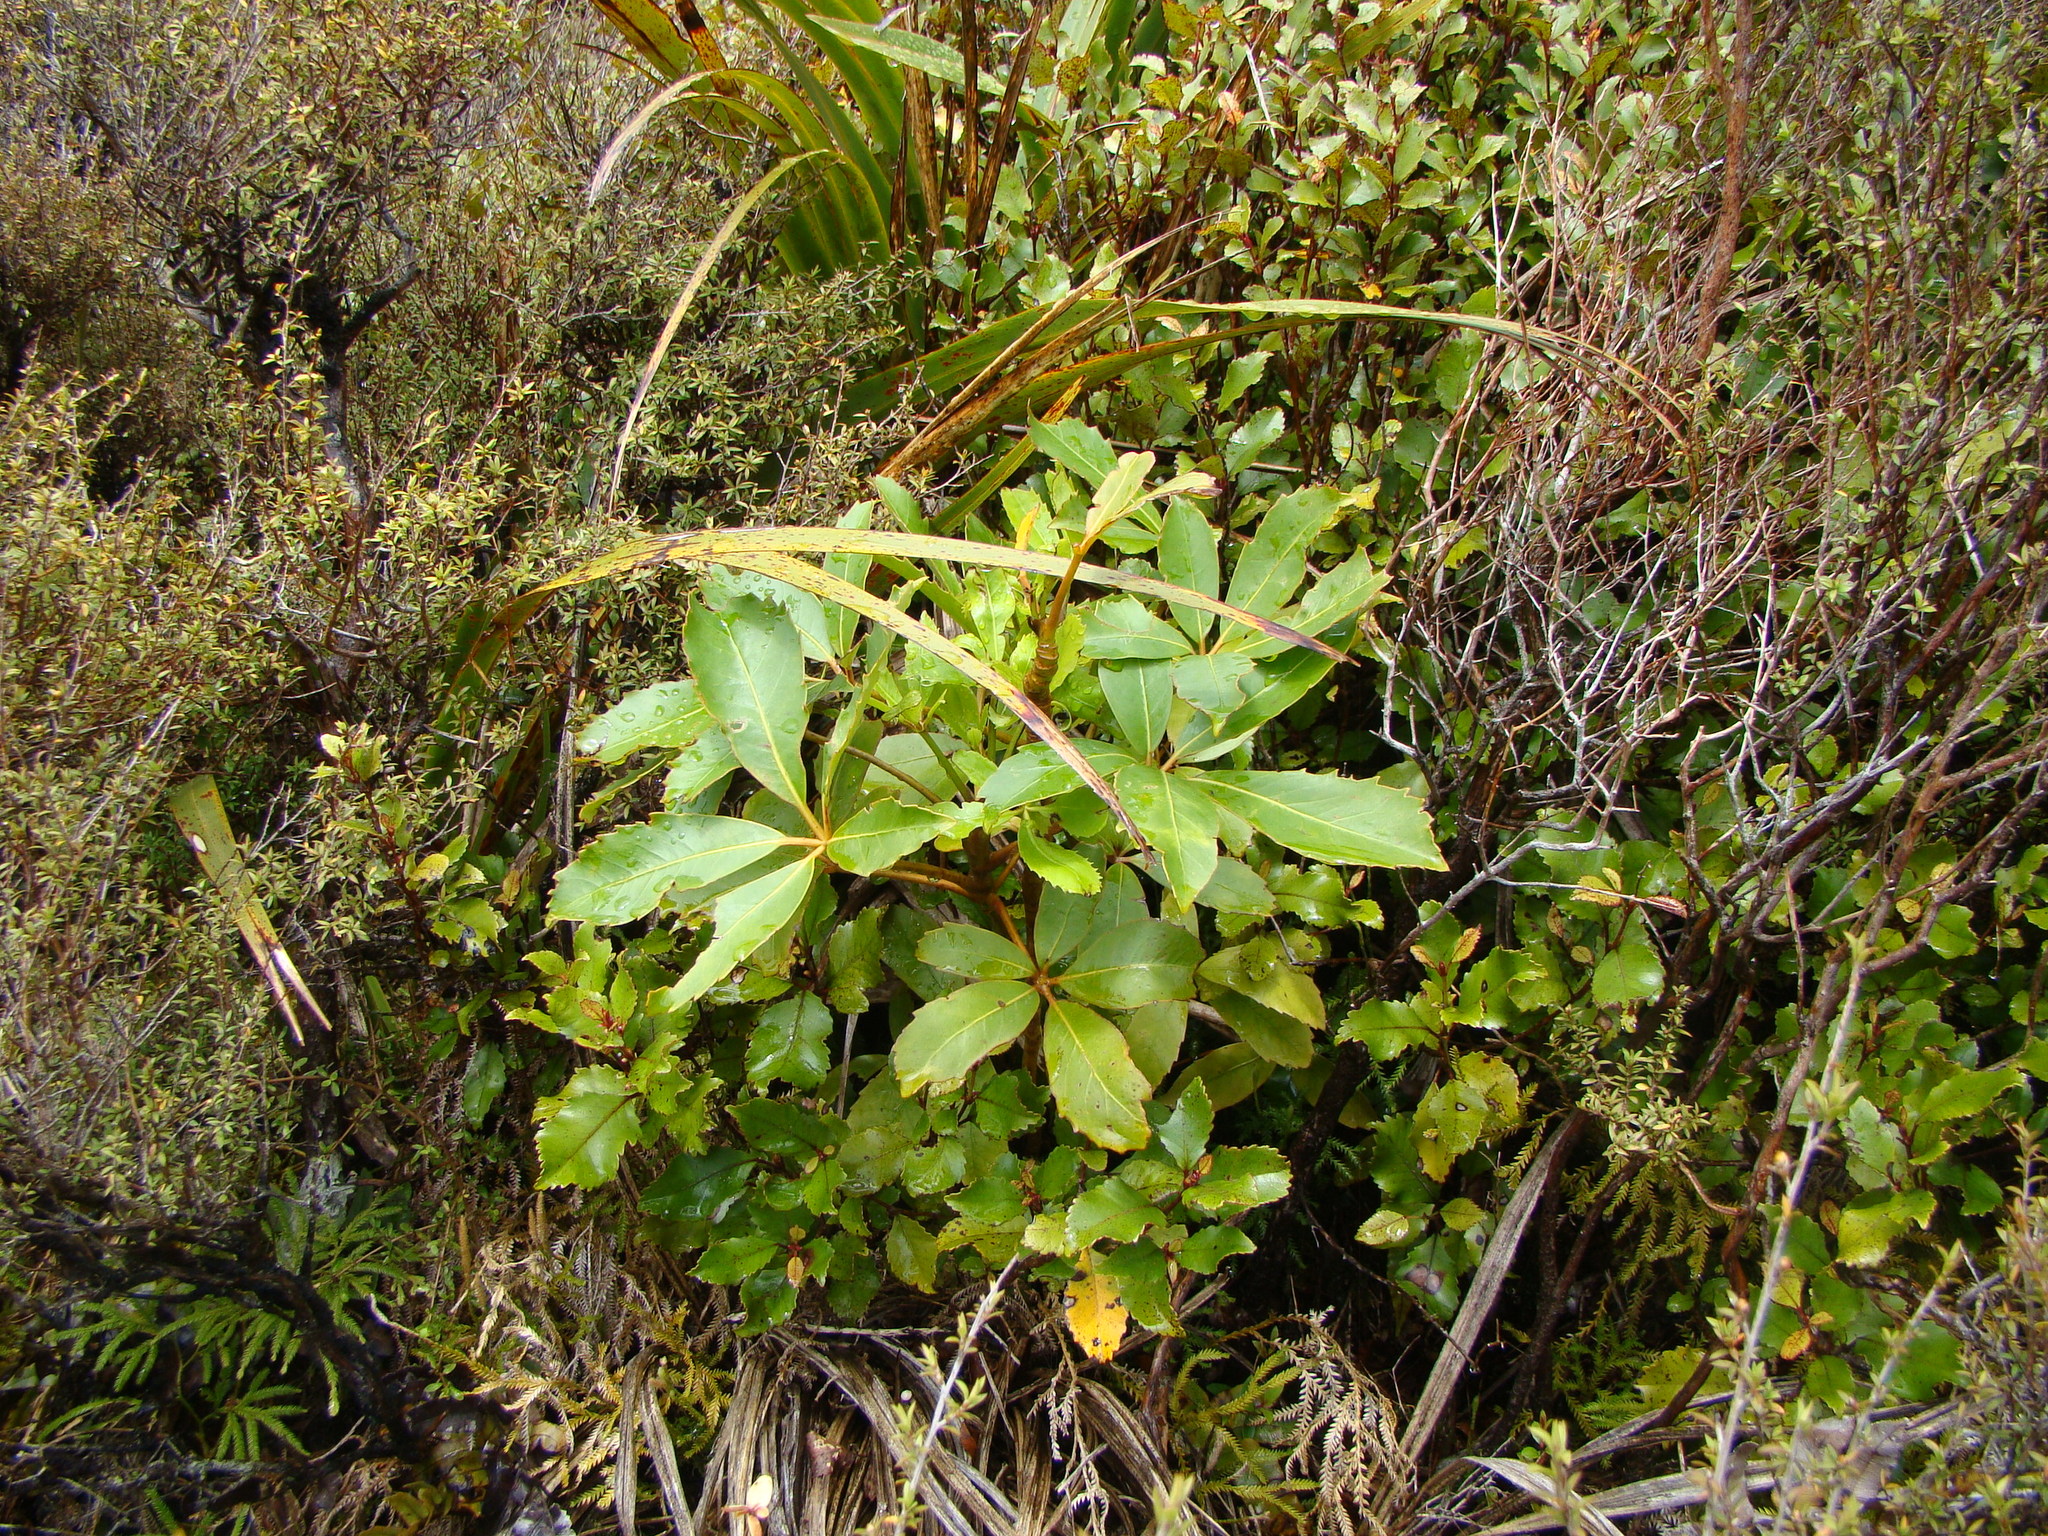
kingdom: Plantae
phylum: Tracheophyta
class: Magnoliopsida
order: Apiales
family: Araliaceae
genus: Neopanax
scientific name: Neopanax arboreus
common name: Five-fingers
